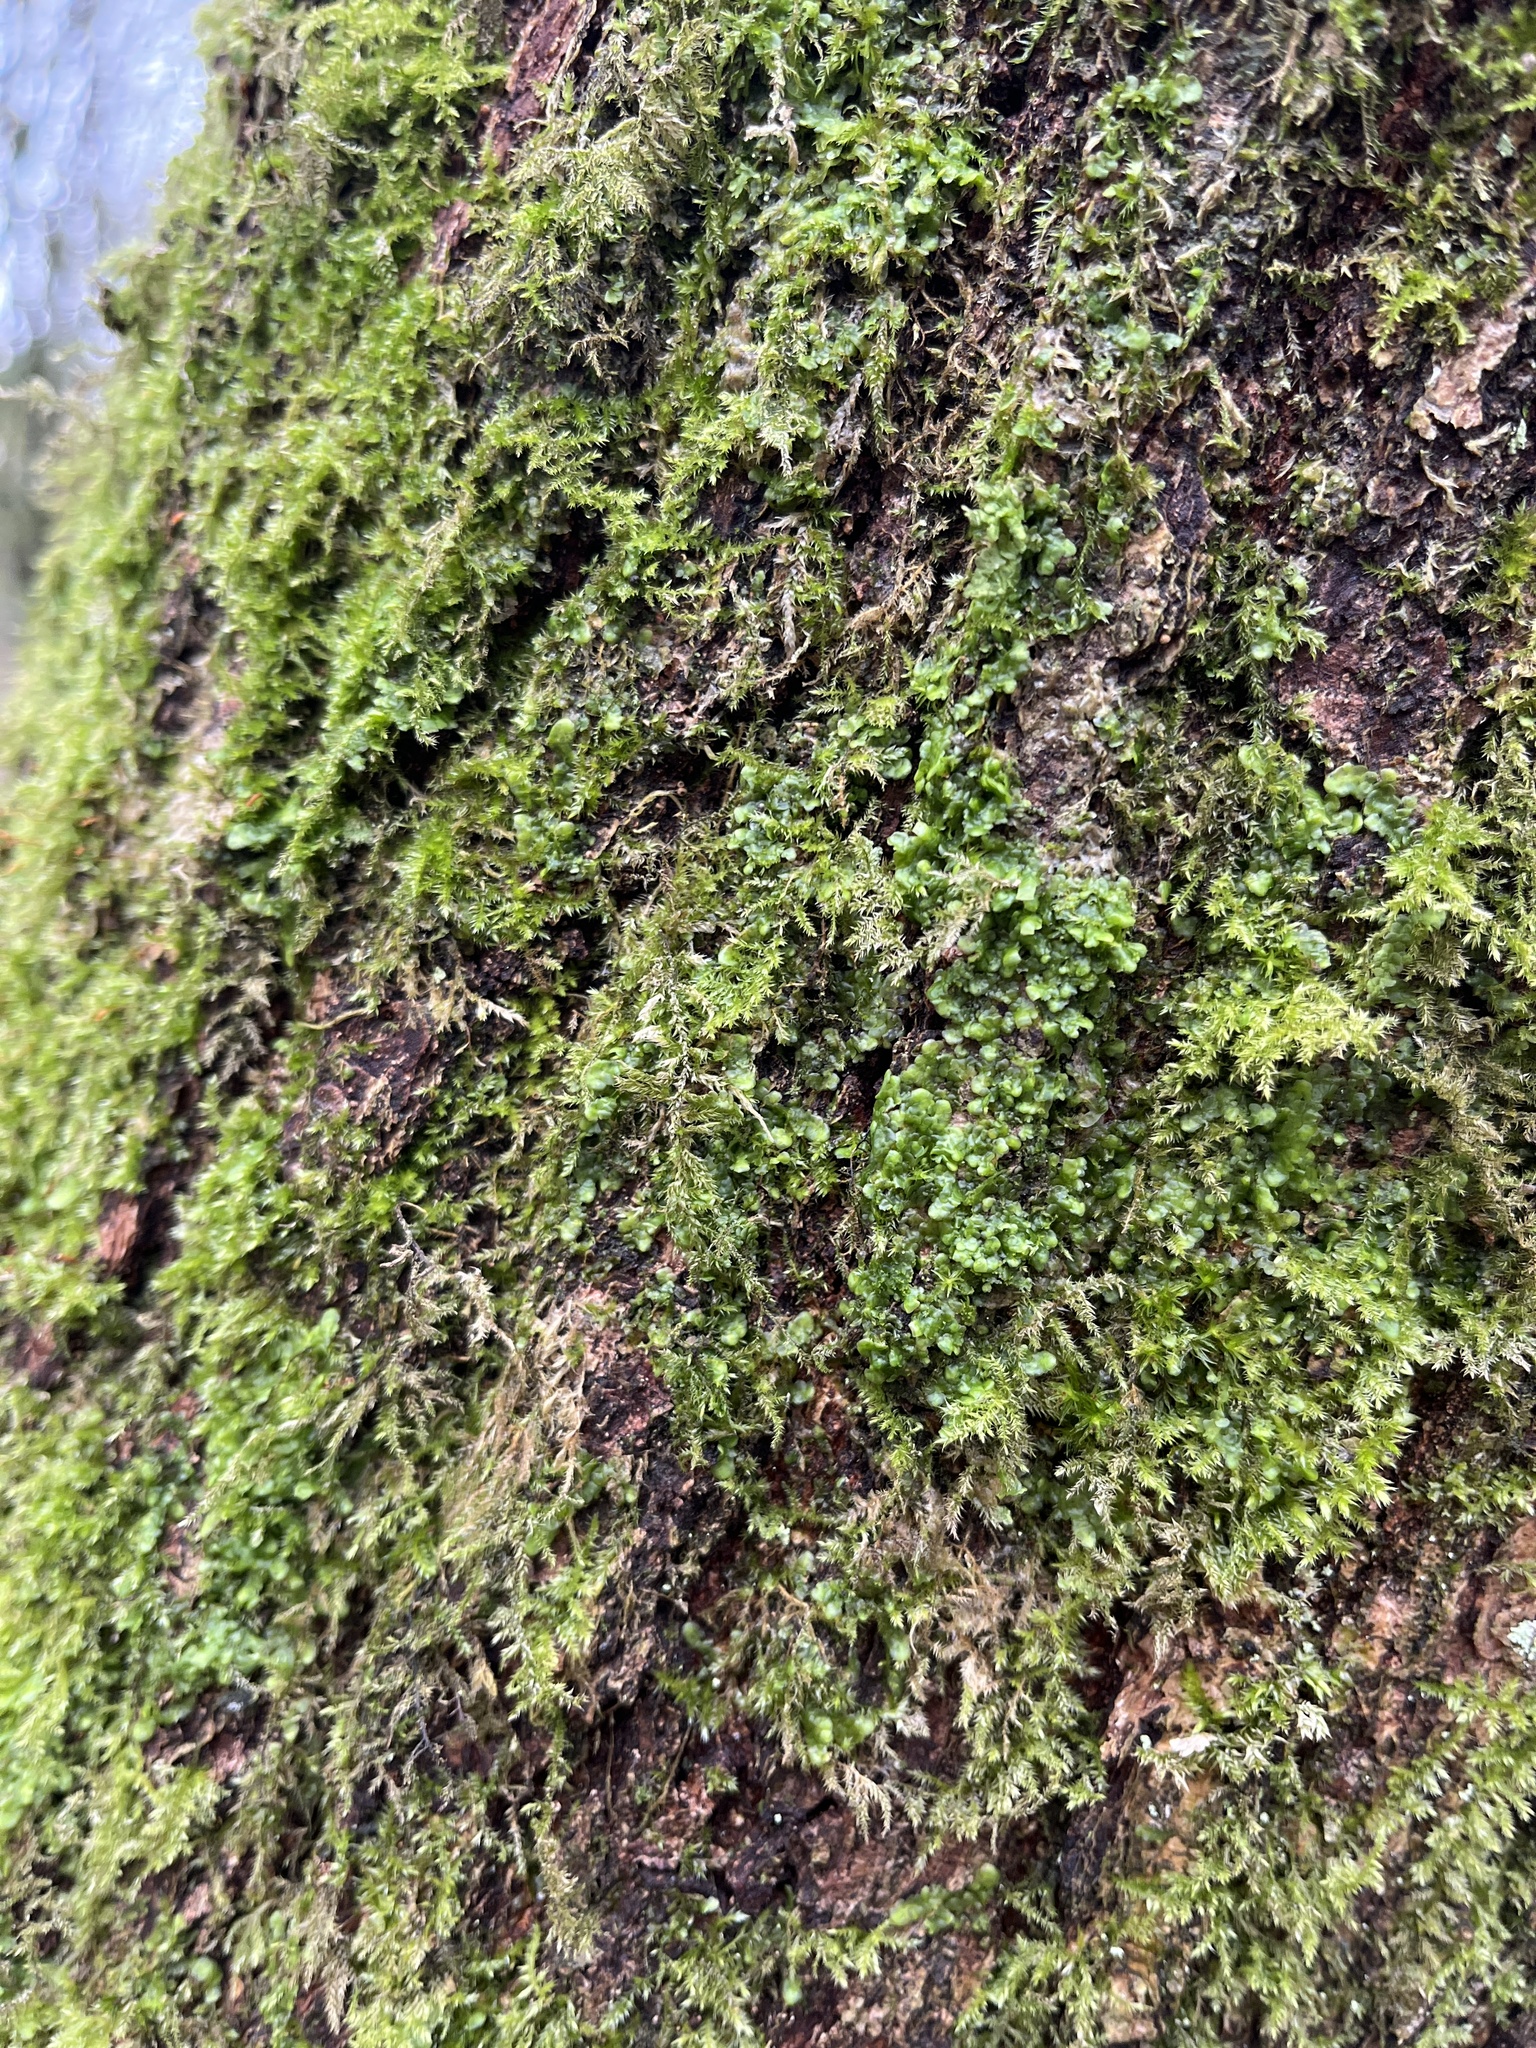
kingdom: Plantae
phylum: Marchantiophyta
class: Jungermanniopsida
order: Porellales
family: Radulaceae
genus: Radula
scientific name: Radula complanata
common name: Flat-leaved scalewort
